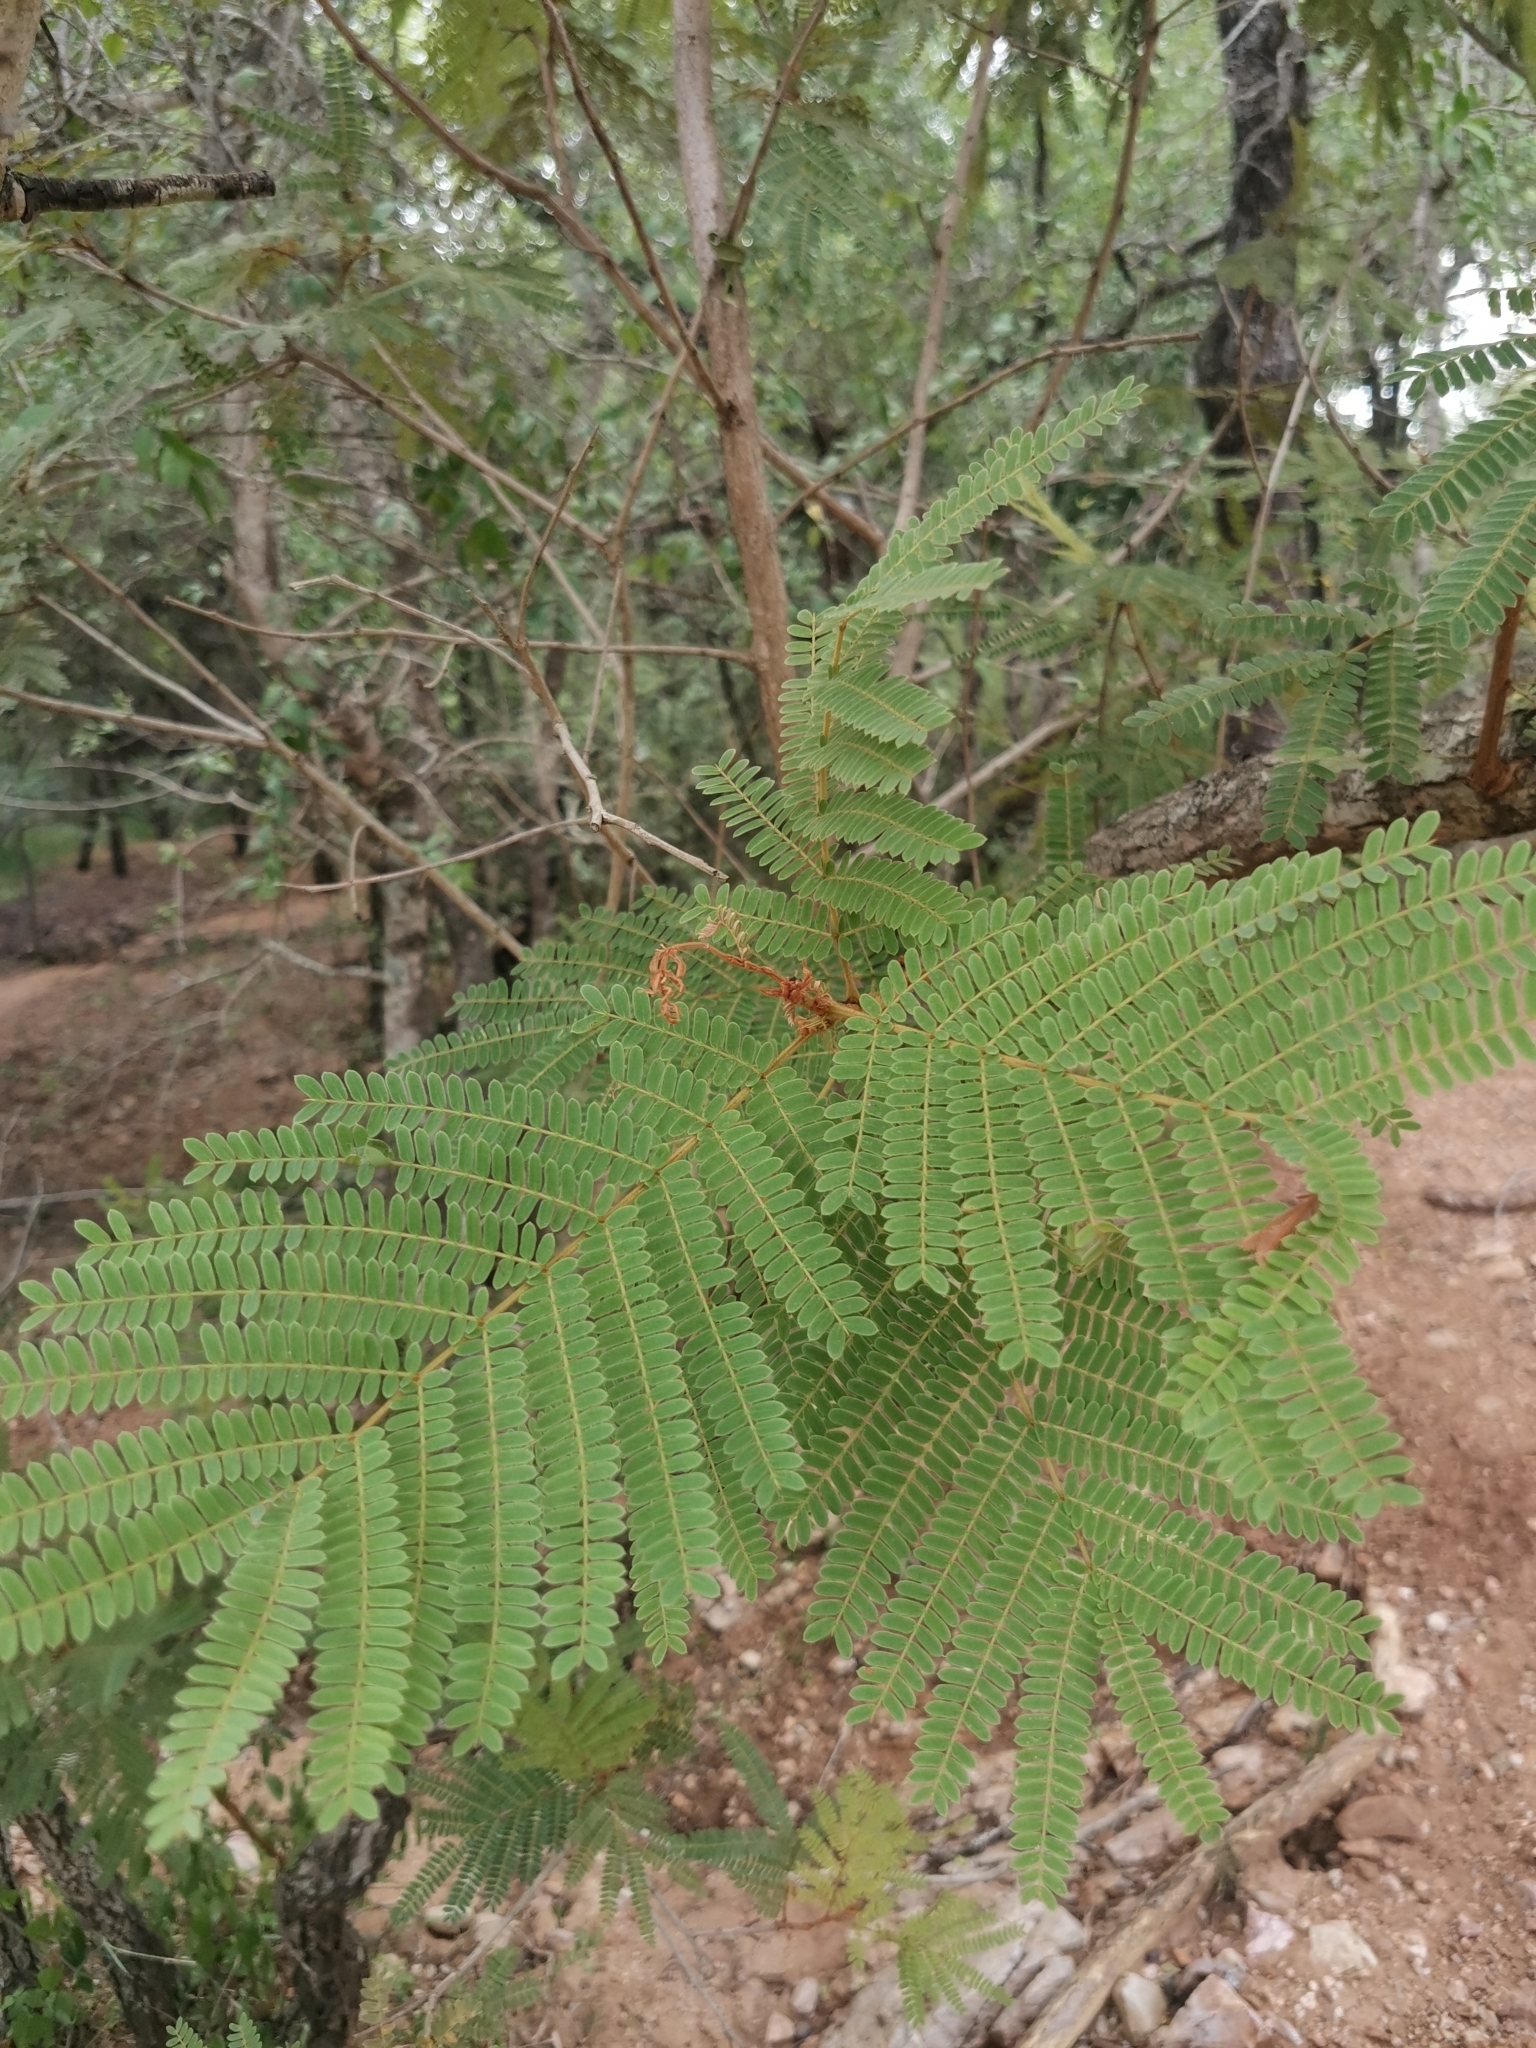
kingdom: Plantae
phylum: Tracheophyta
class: Magnoliopsida
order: Fabales
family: Fabaceae
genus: Peltophorum
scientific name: Peltophorum africanum
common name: African black wattle
